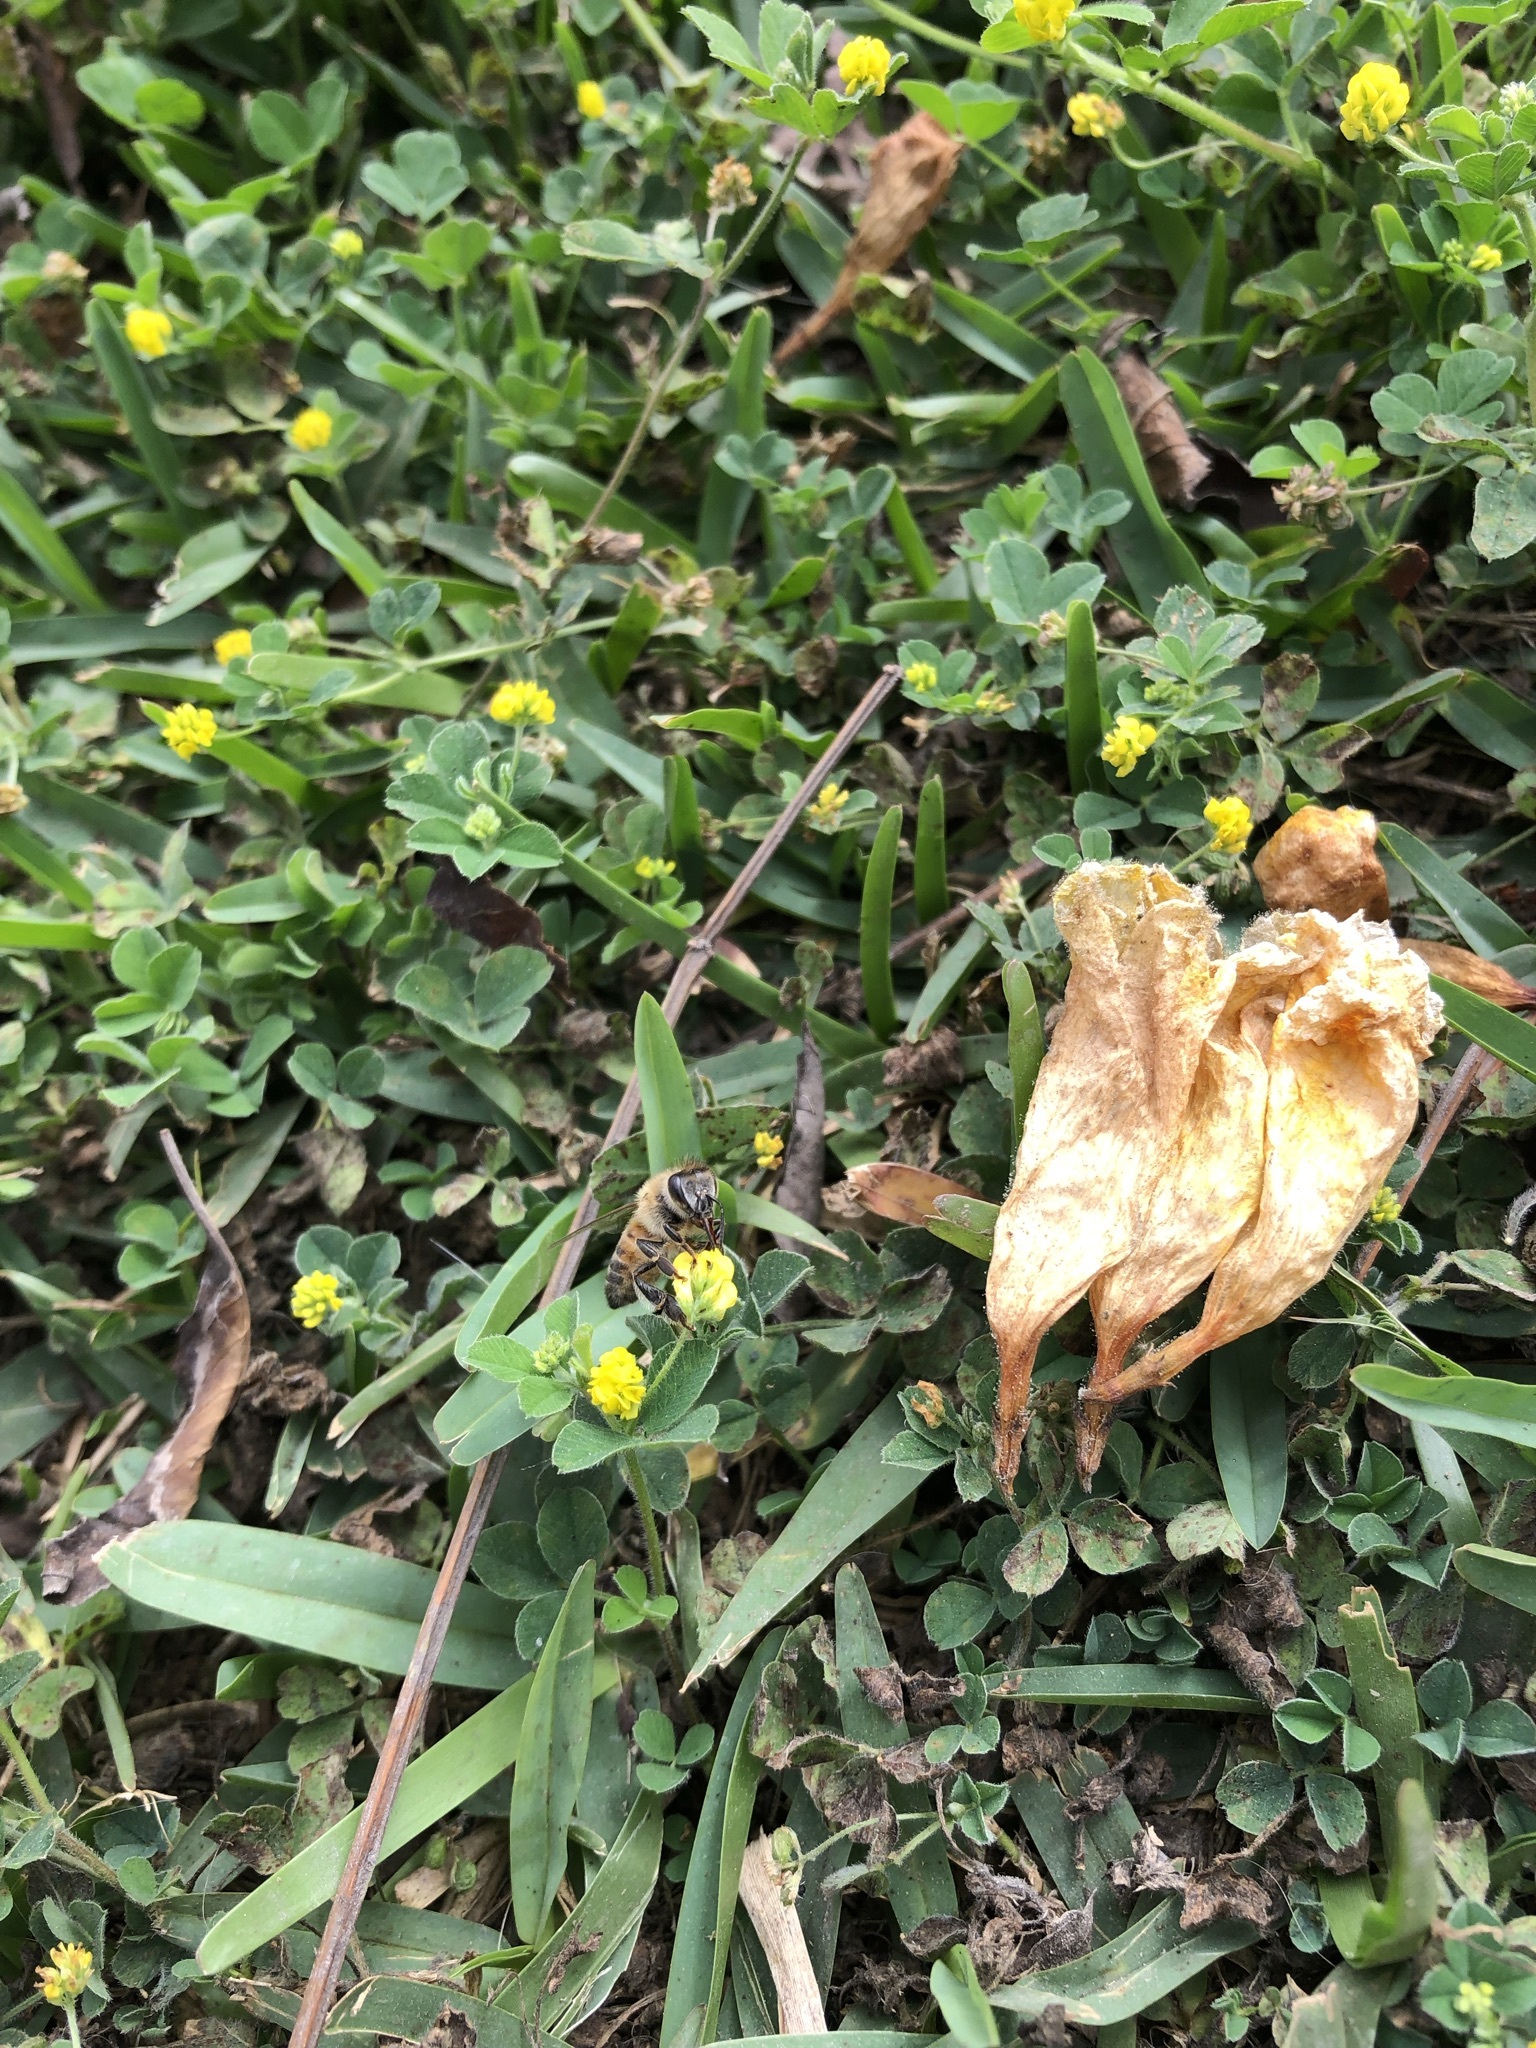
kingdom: Animalia
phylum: Arthropoda
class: Insecta
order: Hymenoptera
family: Apidae
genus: Apis
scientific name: Apis mellifera
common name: Honey bee
